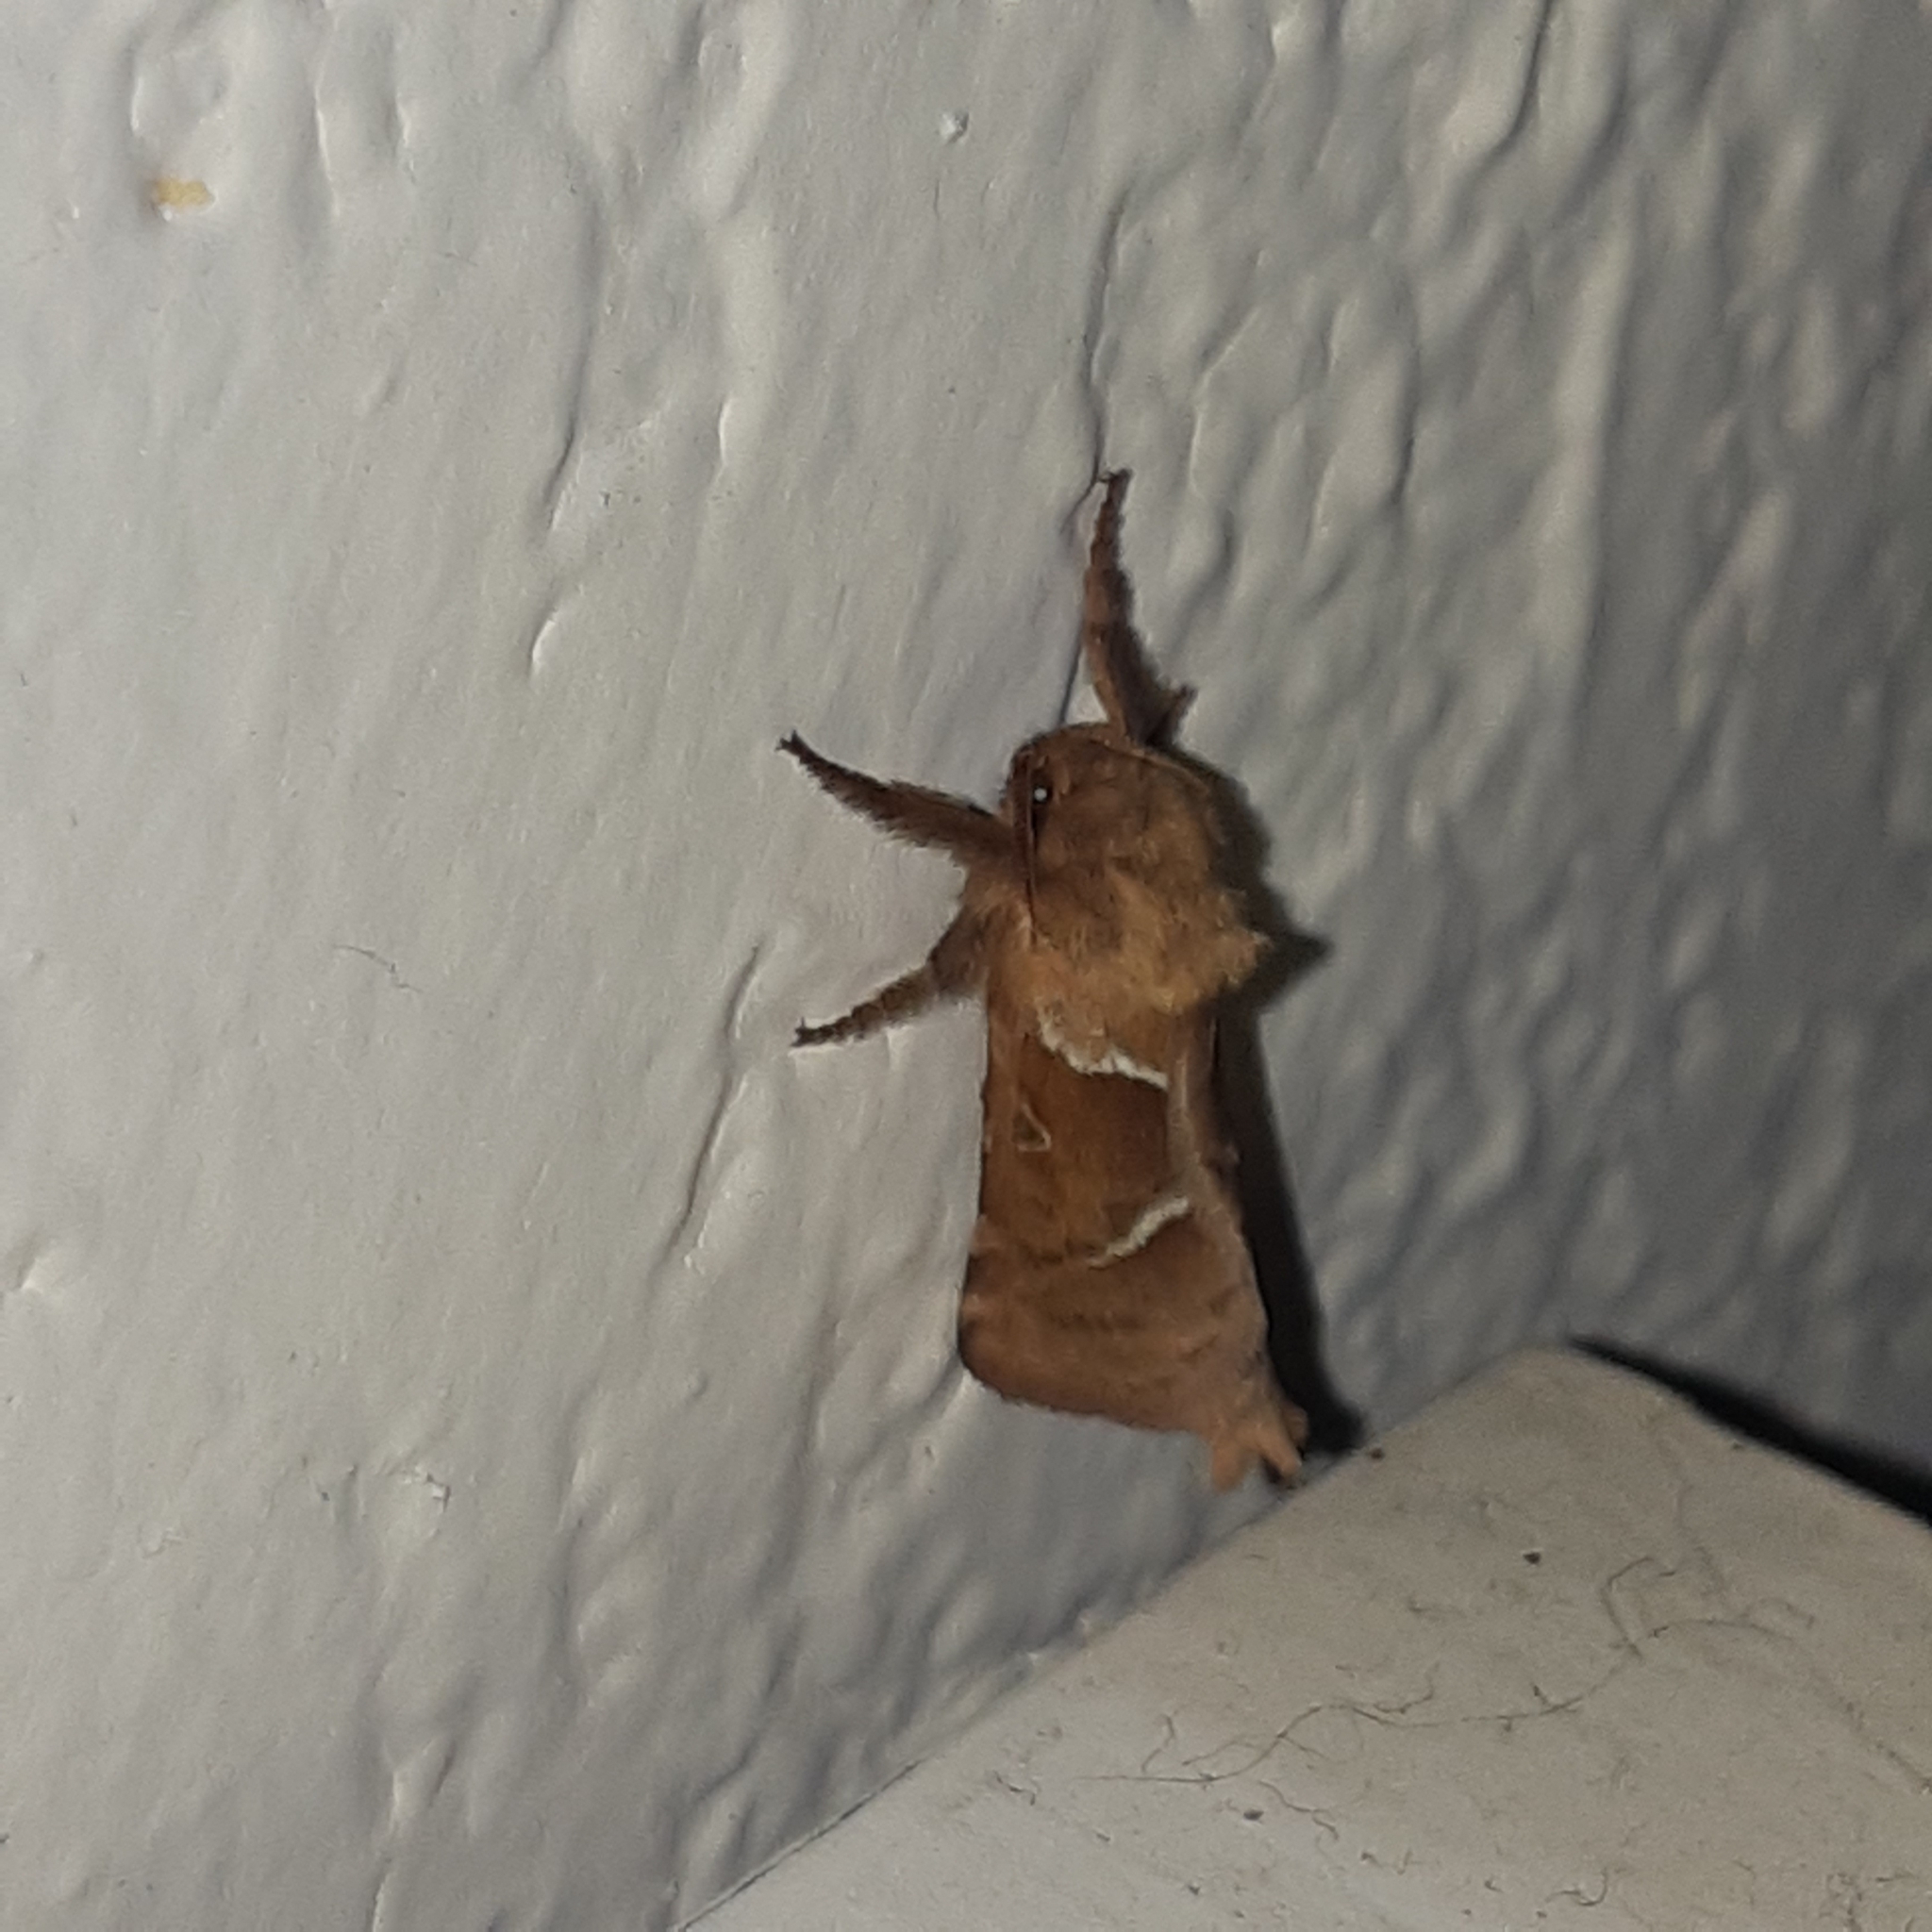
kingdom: Animalia
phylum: Arthropoda
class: Insecta
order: Lepidoptera
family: Hepialidae
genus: Triodia
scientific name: Triodia sylvina
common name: Orange swift
